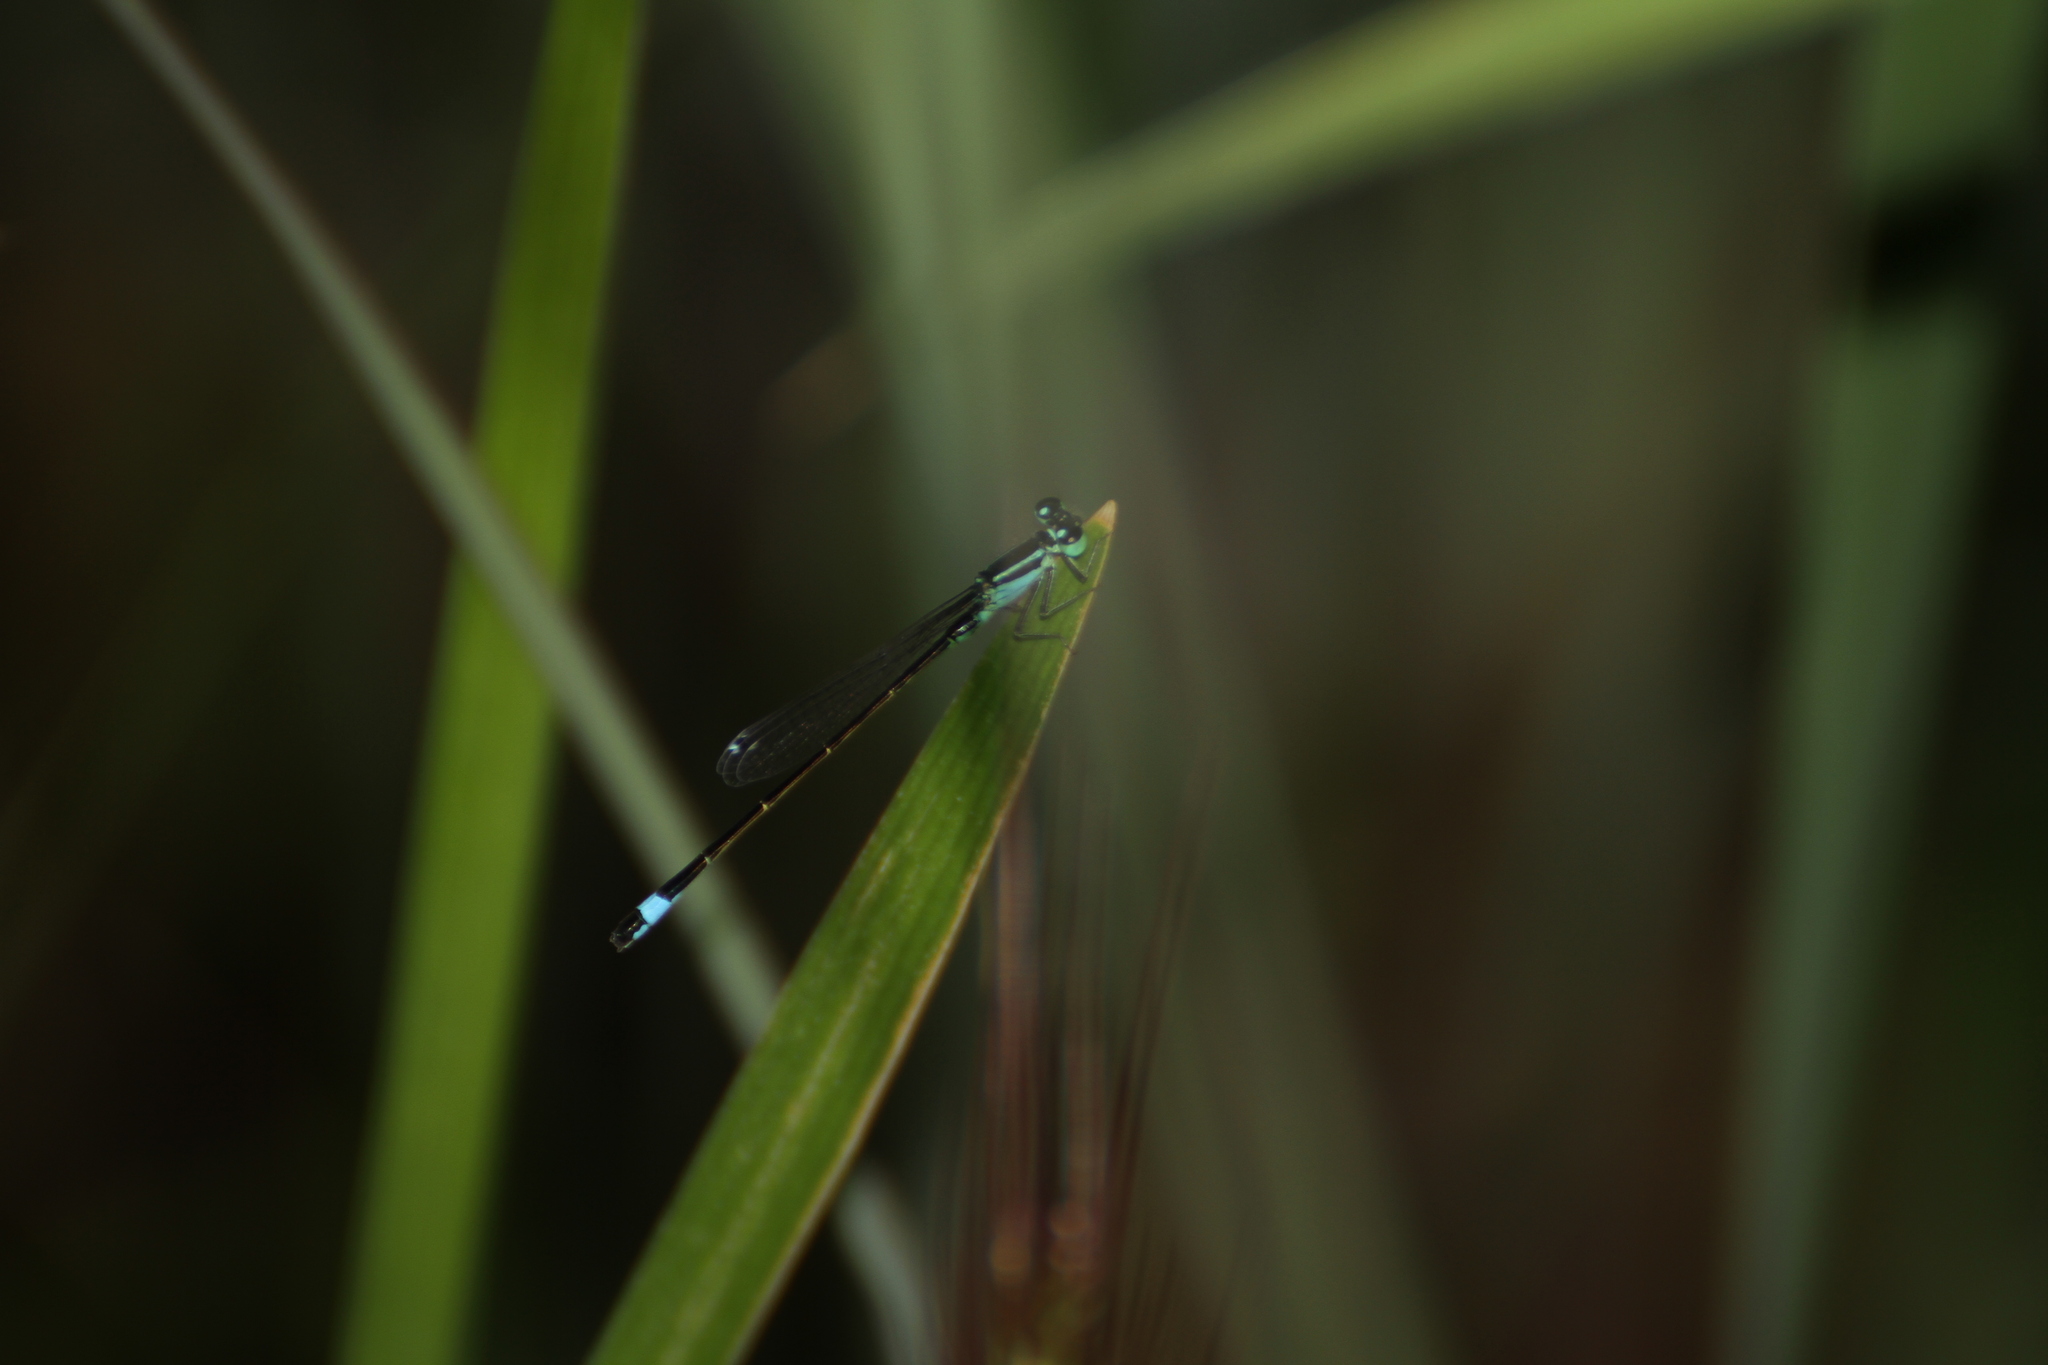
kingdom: Animalia
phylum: Arthropoda
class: Insecta
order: Odonata
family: Coenagrionidae
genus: Ischnura
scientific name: Ischnura elegans
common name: Blue-tailed damselfly
